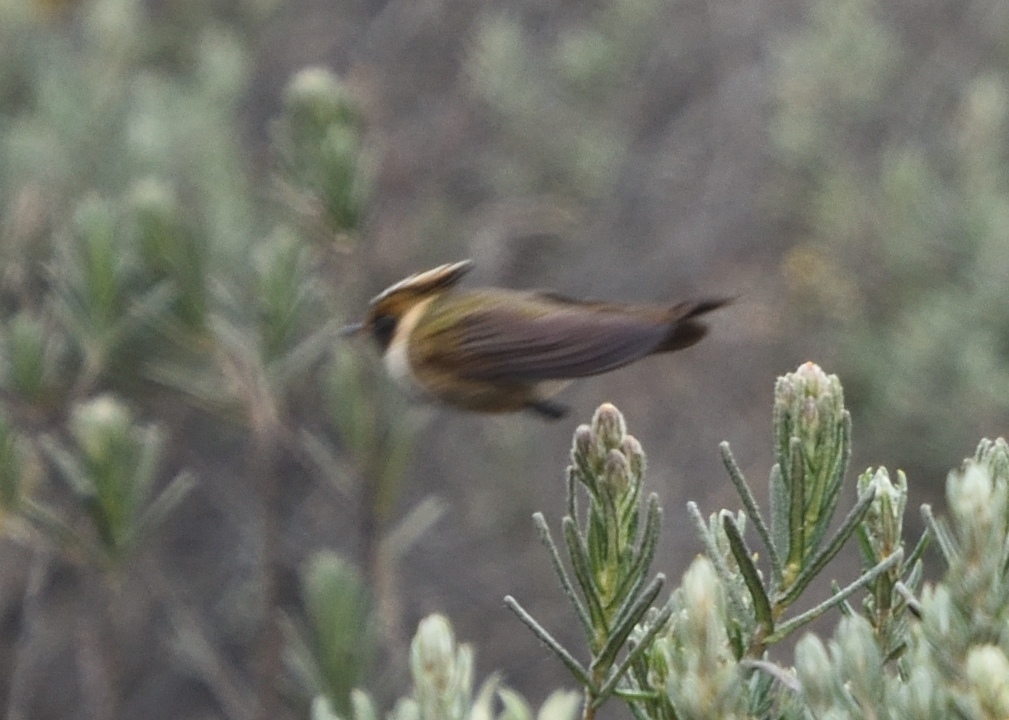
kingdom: Animalia
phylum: Chordata
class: Aves
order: Apodiformes
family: Trochilidae
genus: Oxypogon
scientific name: Oxypogon stuebelii
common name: Buffy helmetcrest
